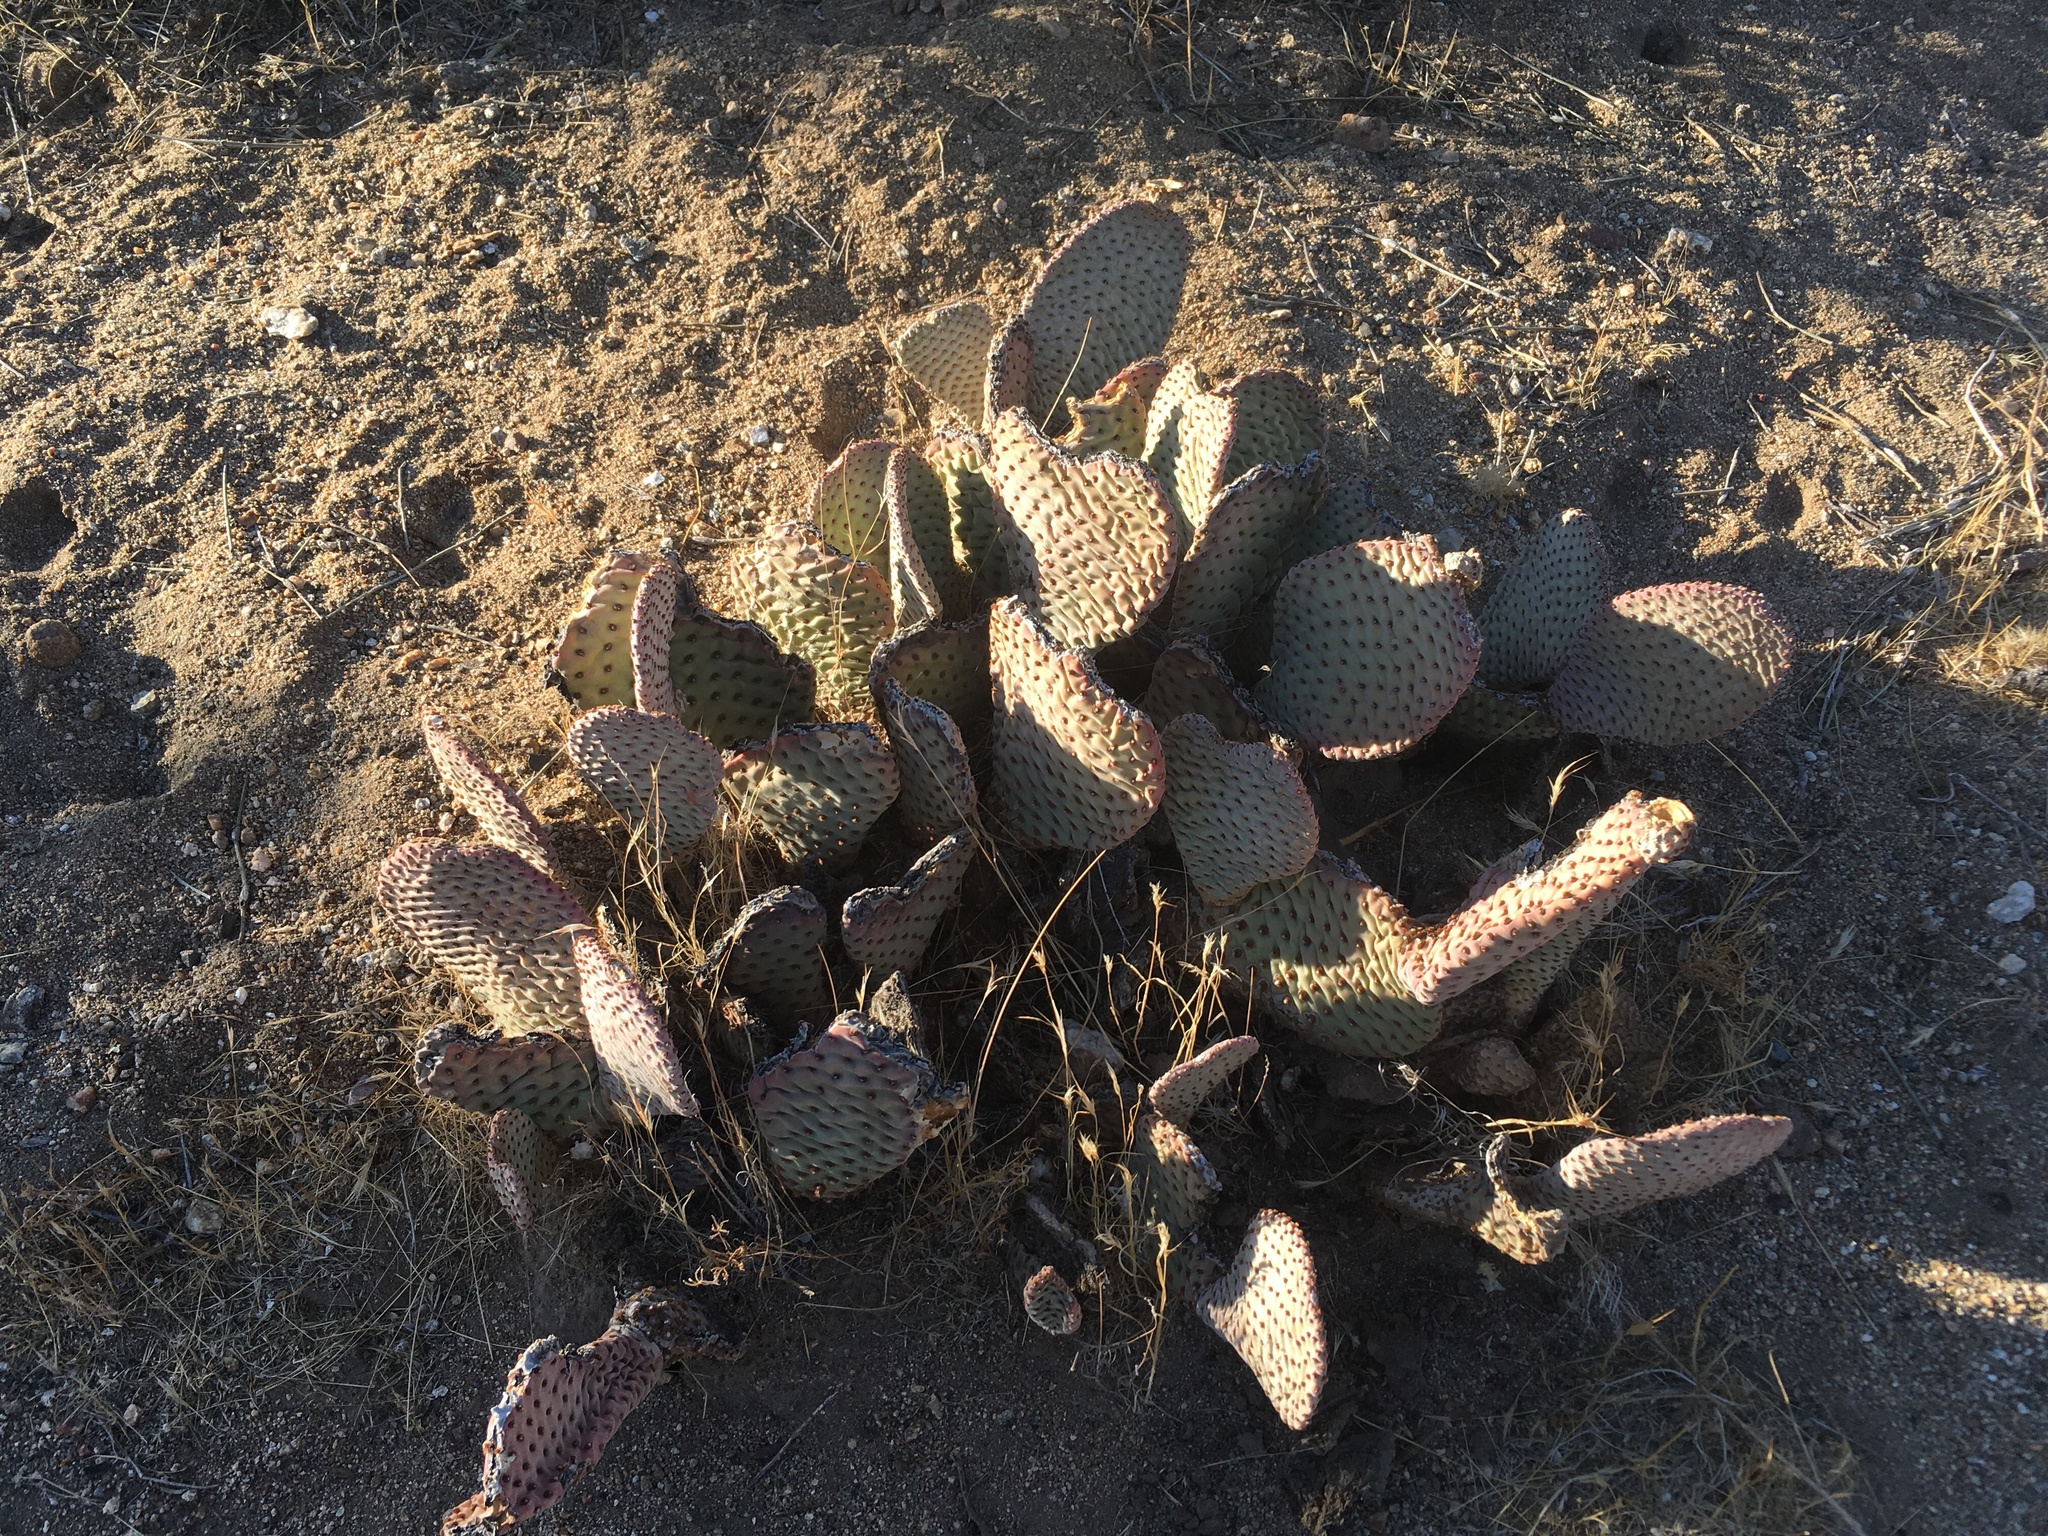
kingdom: Plantae
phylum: Tracheophyta
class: Magnoliopsida
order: Caryophyllales
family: Cactaceae
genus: Opuntia
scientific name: Opuntia basilaris
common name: Beavertail prickly-pear
